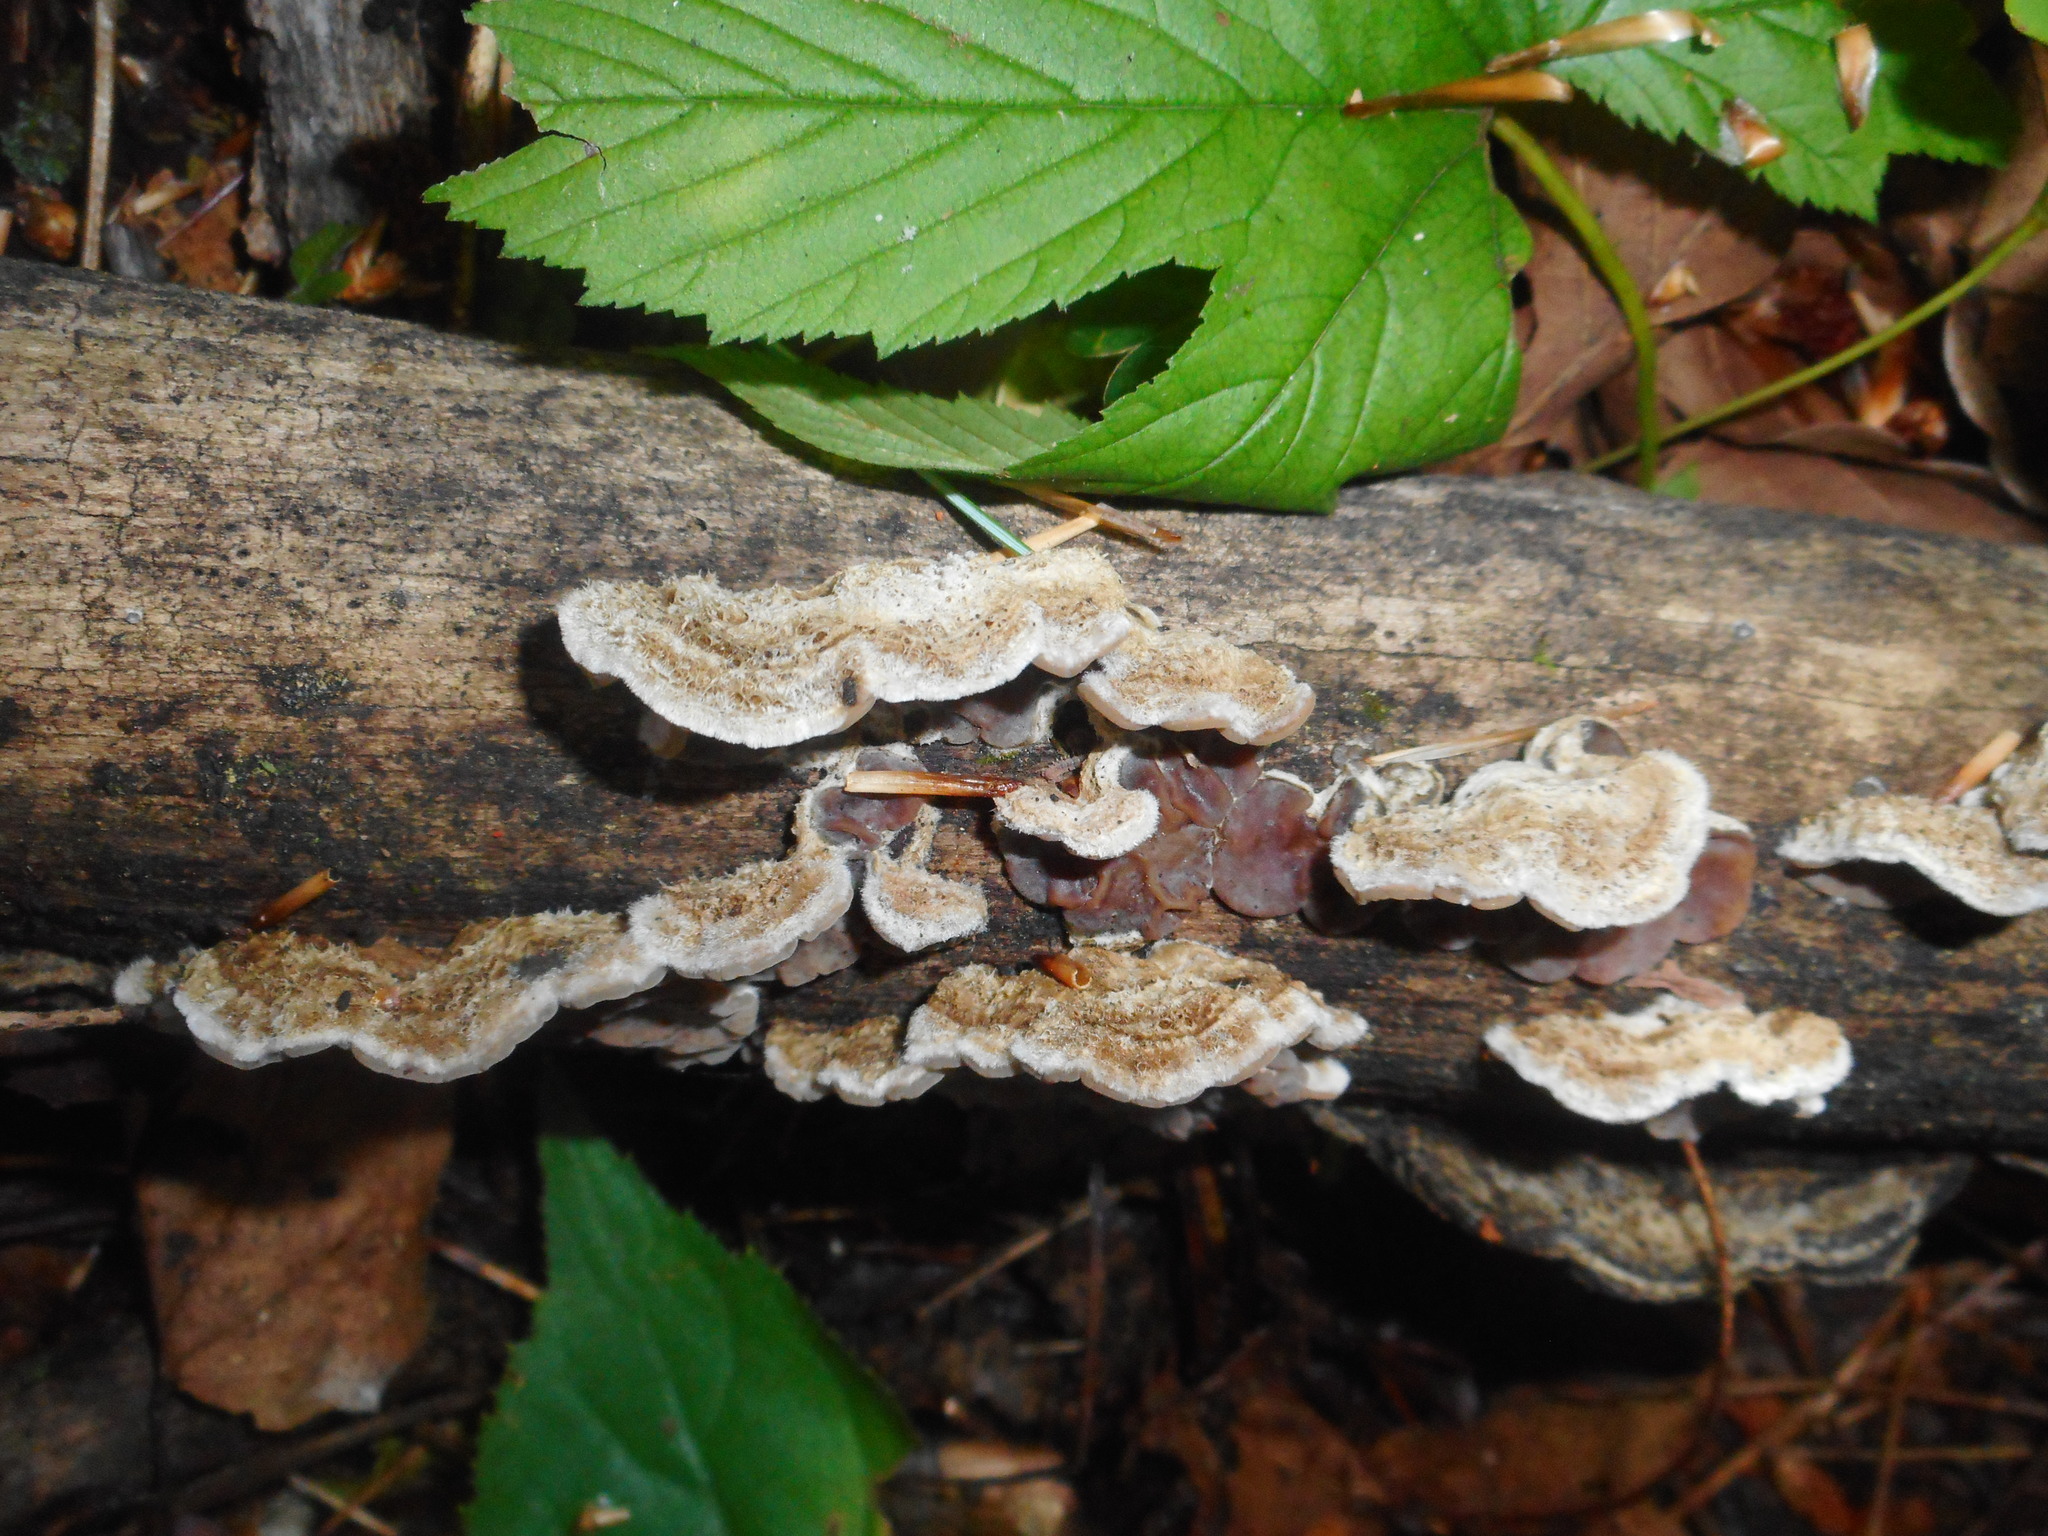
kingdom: Fungi
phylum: Basidiomycota
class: Agaricomycetes
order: Auriculariales
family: Auriculariaceae
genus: Auricularia
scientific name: Auricularia orientalis
